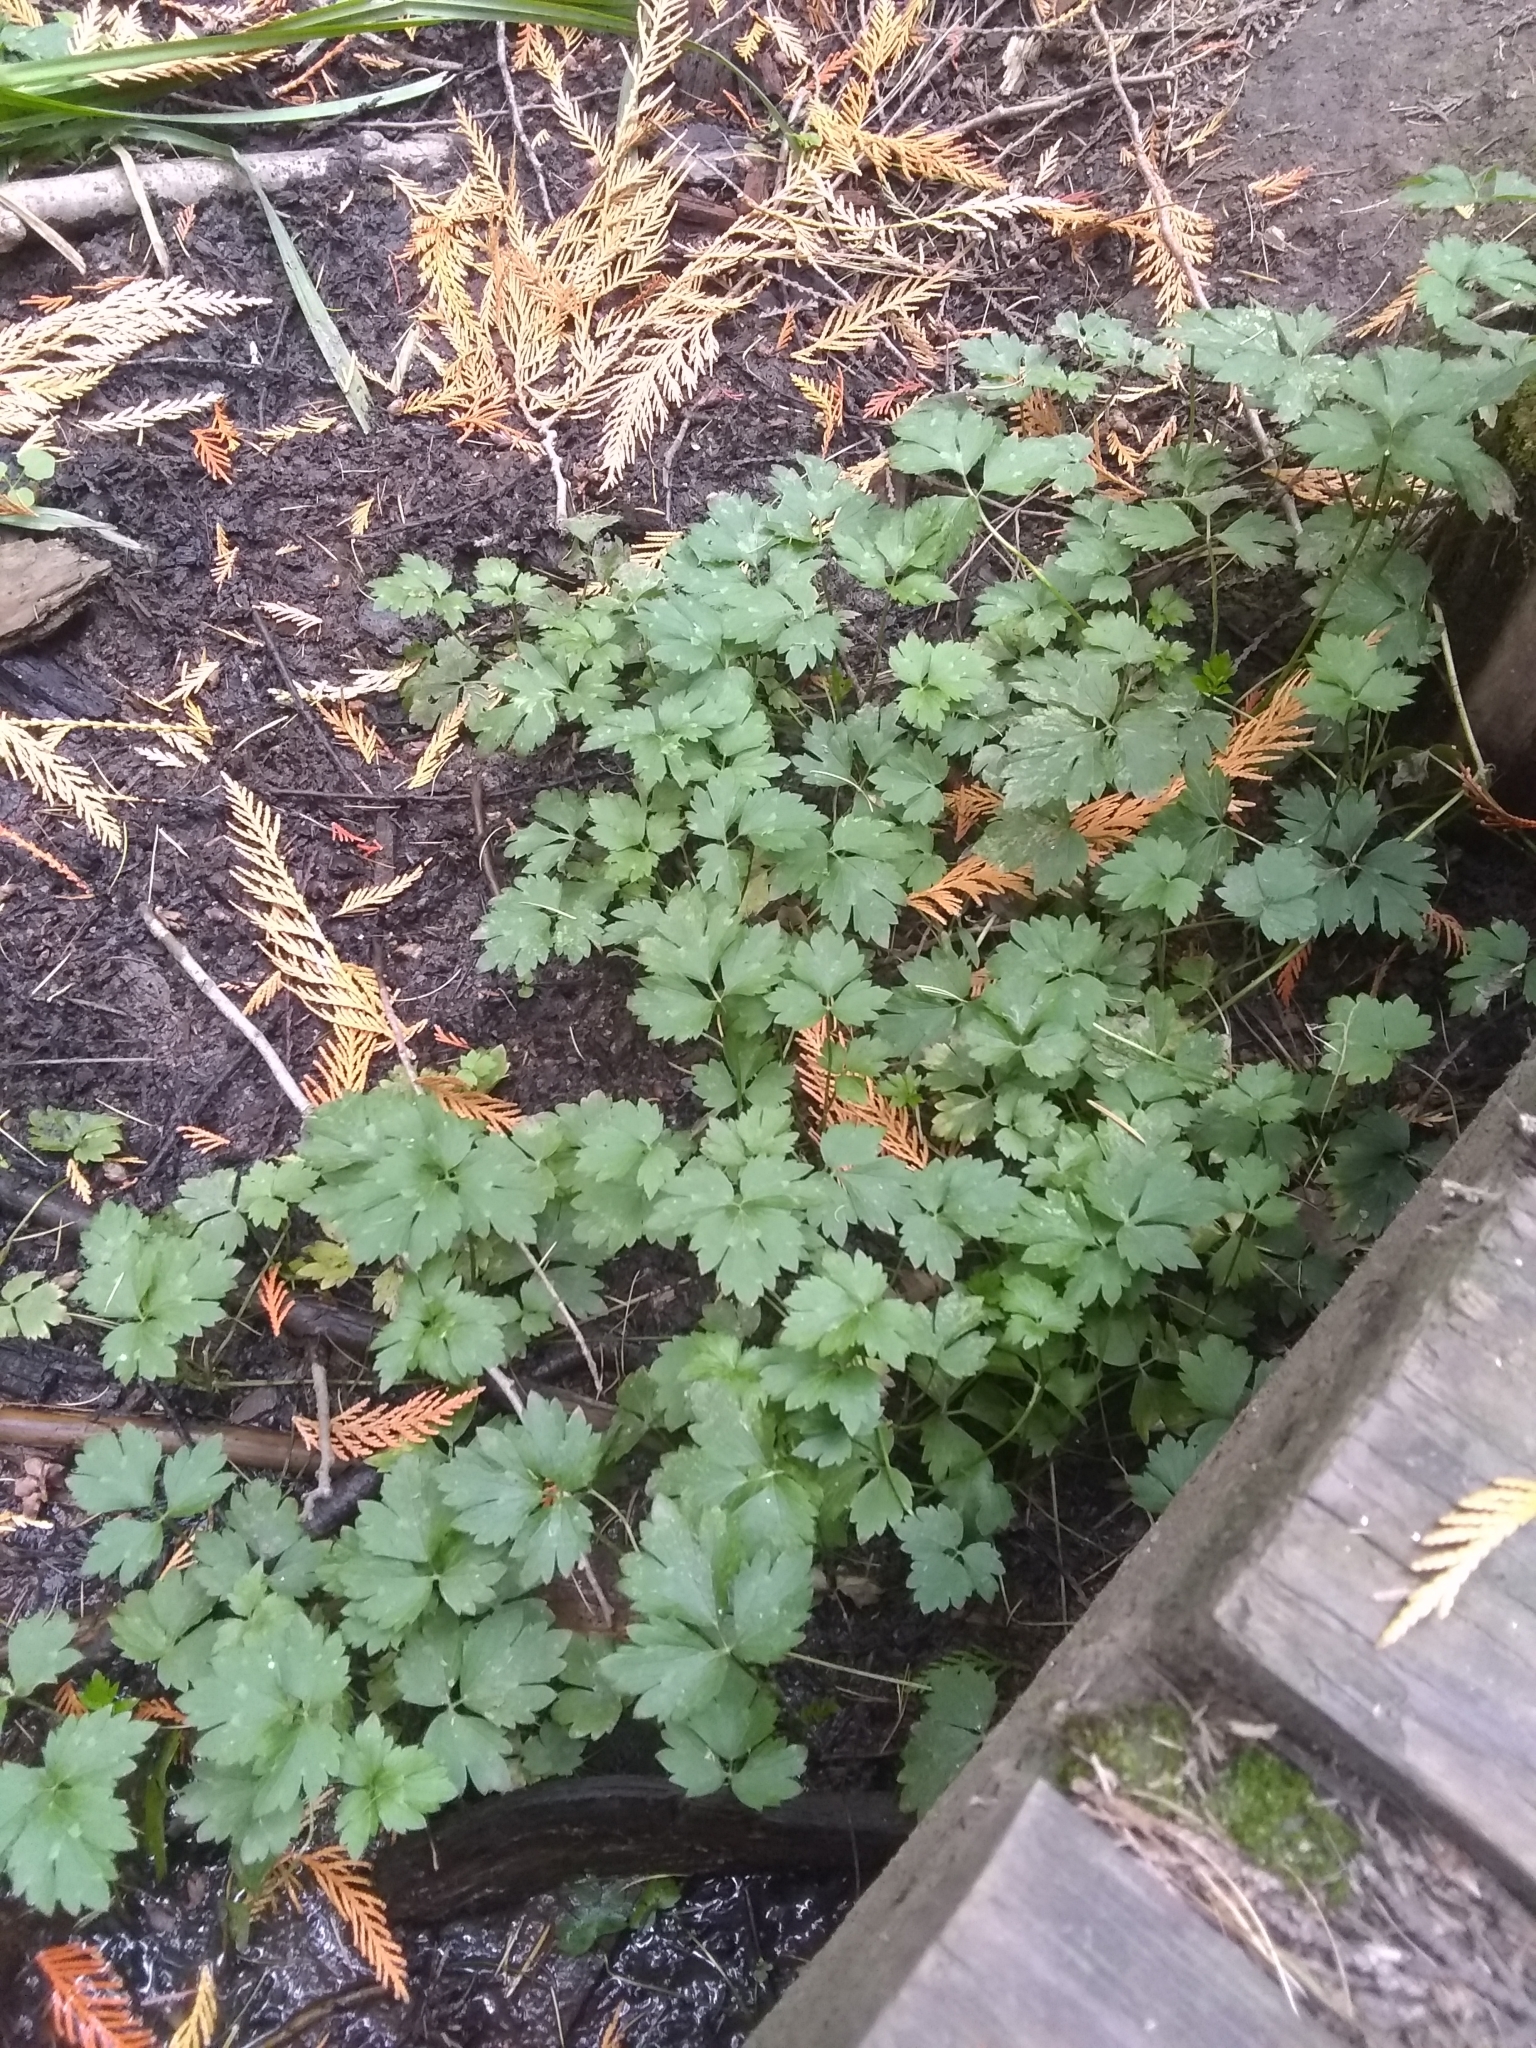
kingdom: Plantae
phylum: Tracheophyta
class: Magnoliopsida
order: Ranunculales
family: Ranunculaceae
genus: Ranunculus
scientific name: Ranunculus repens
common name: Creeping buttercup
